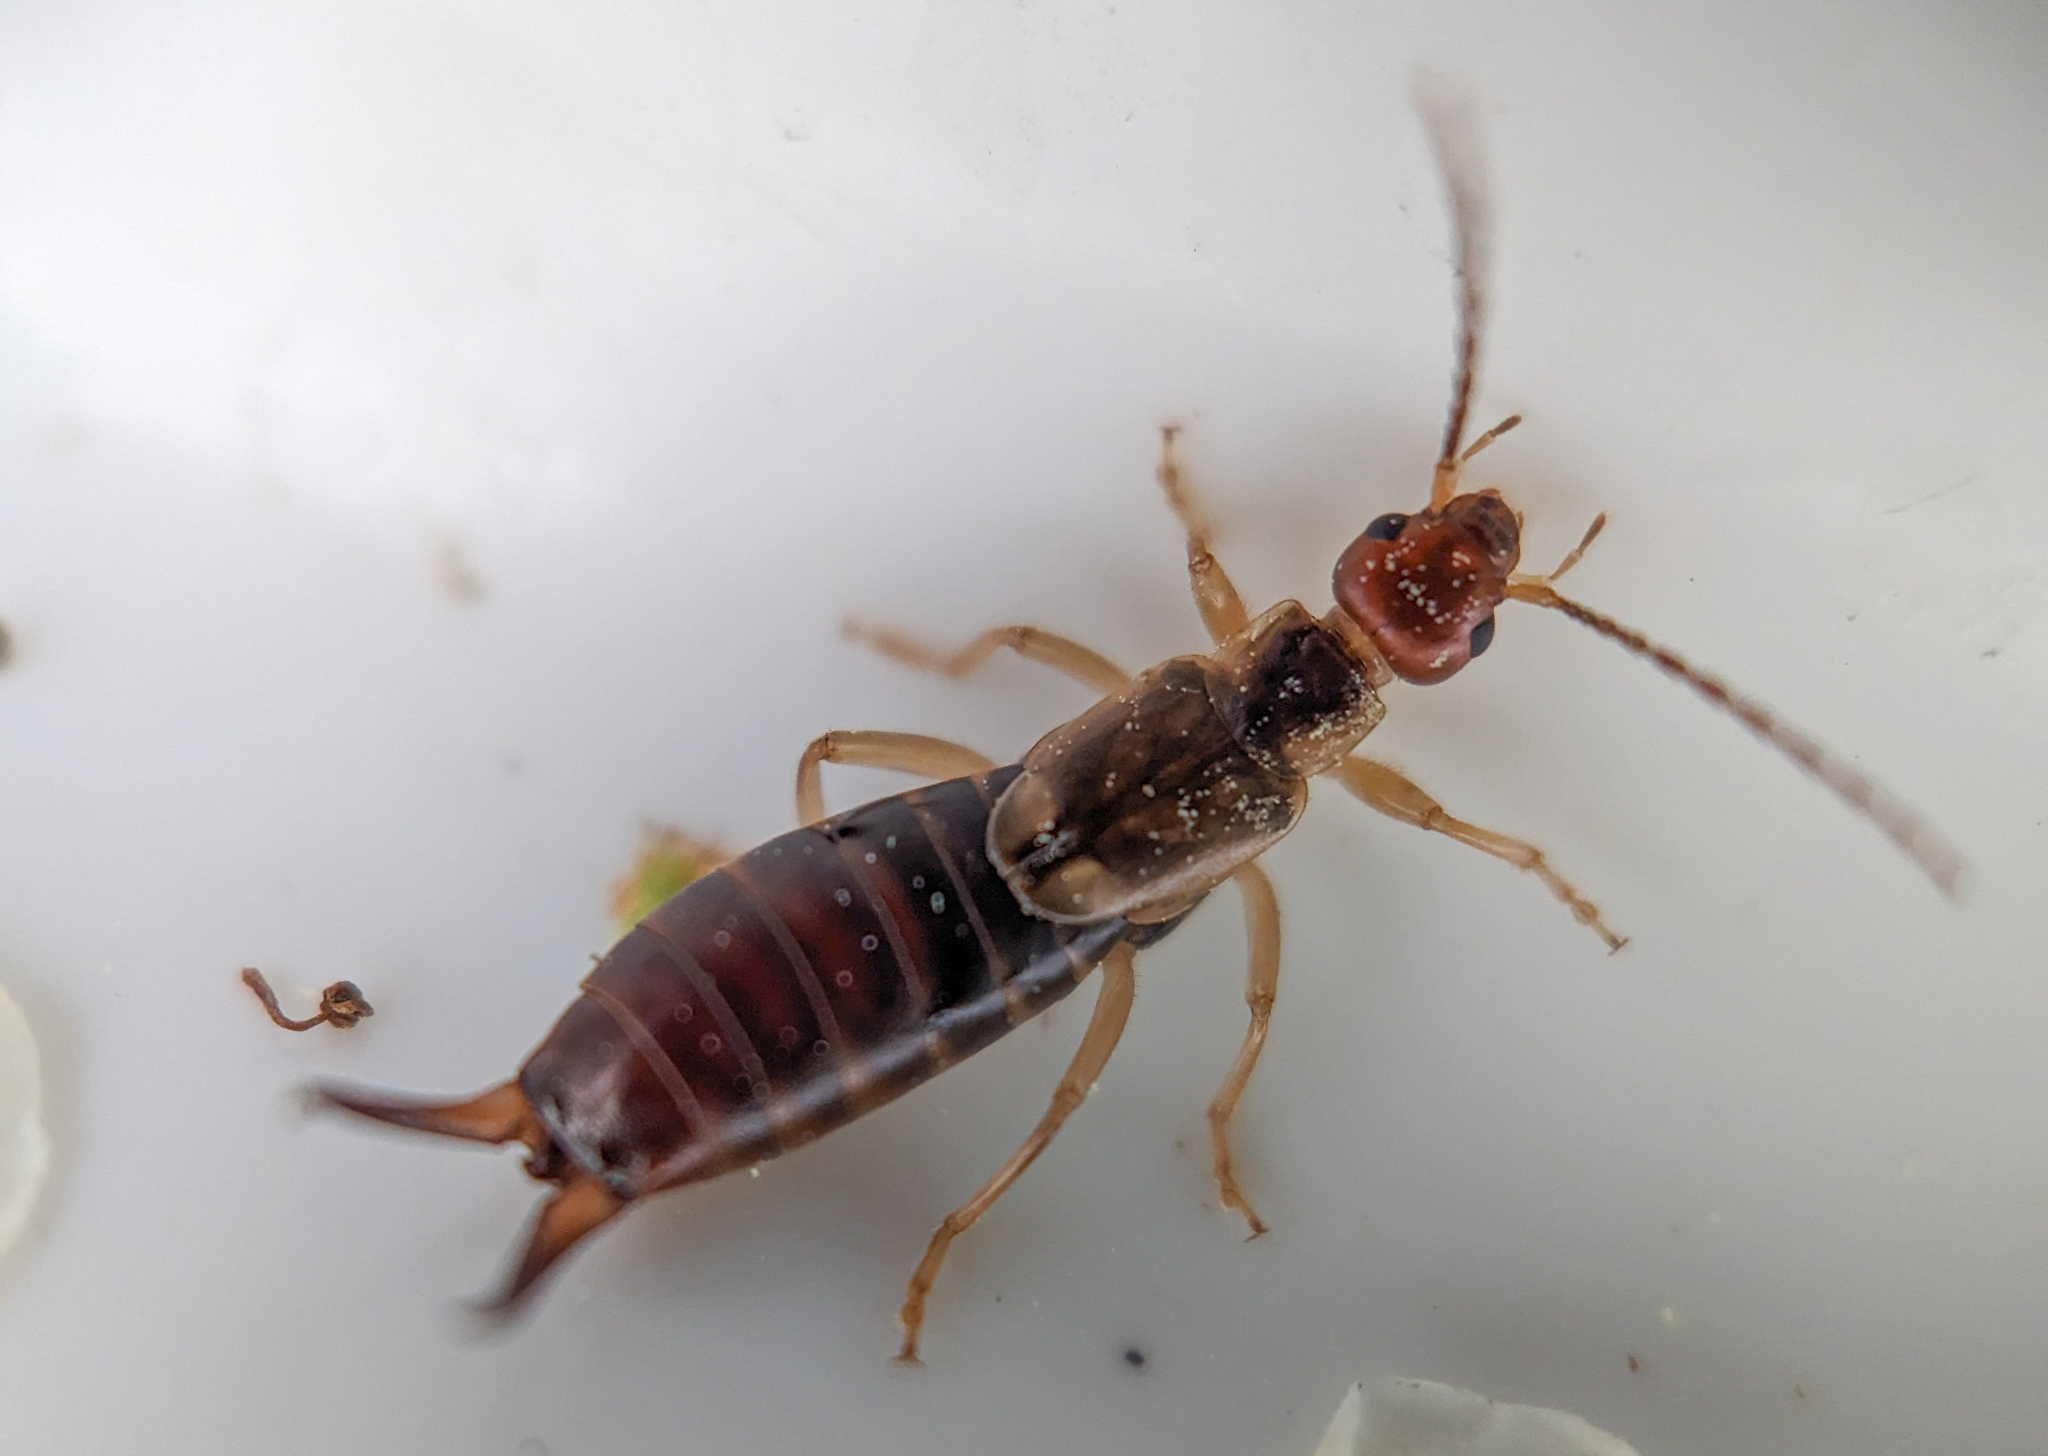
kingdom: Animalia
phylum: Arthropoda
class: Insecta
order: Dermaptera
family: Forficulidae
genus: Forficula
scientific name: Forficula
